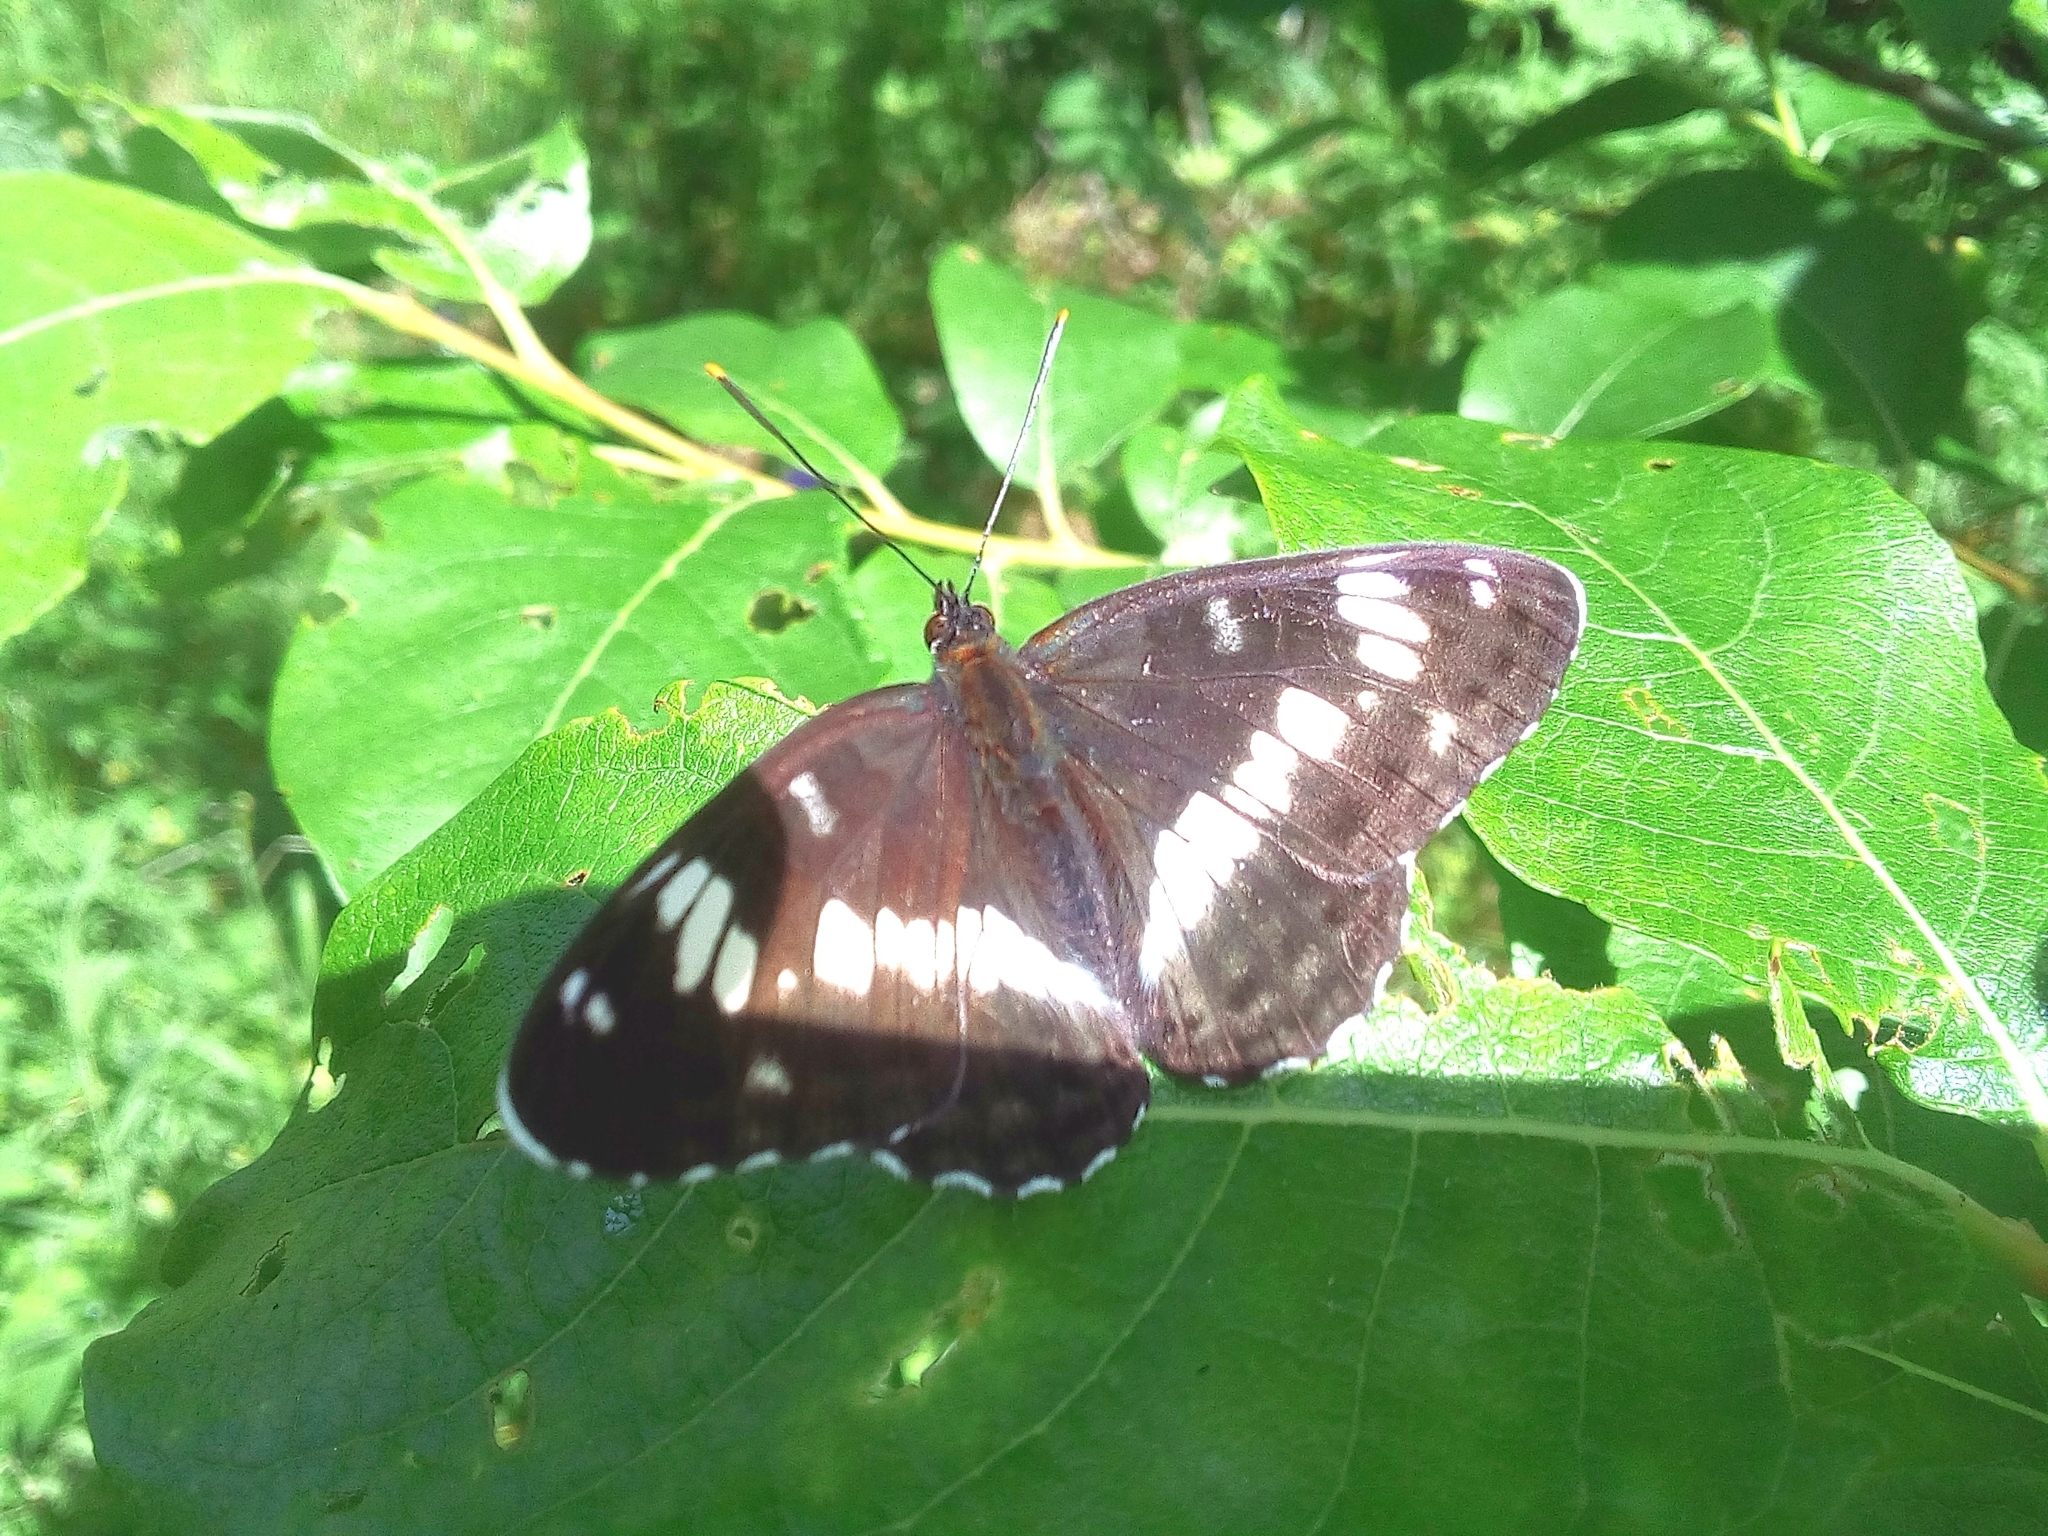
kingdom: Animalia
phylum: Arthropoda
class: Insecta
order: Lepidoptera
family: Nymphalidae
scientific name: Nymphalidae
